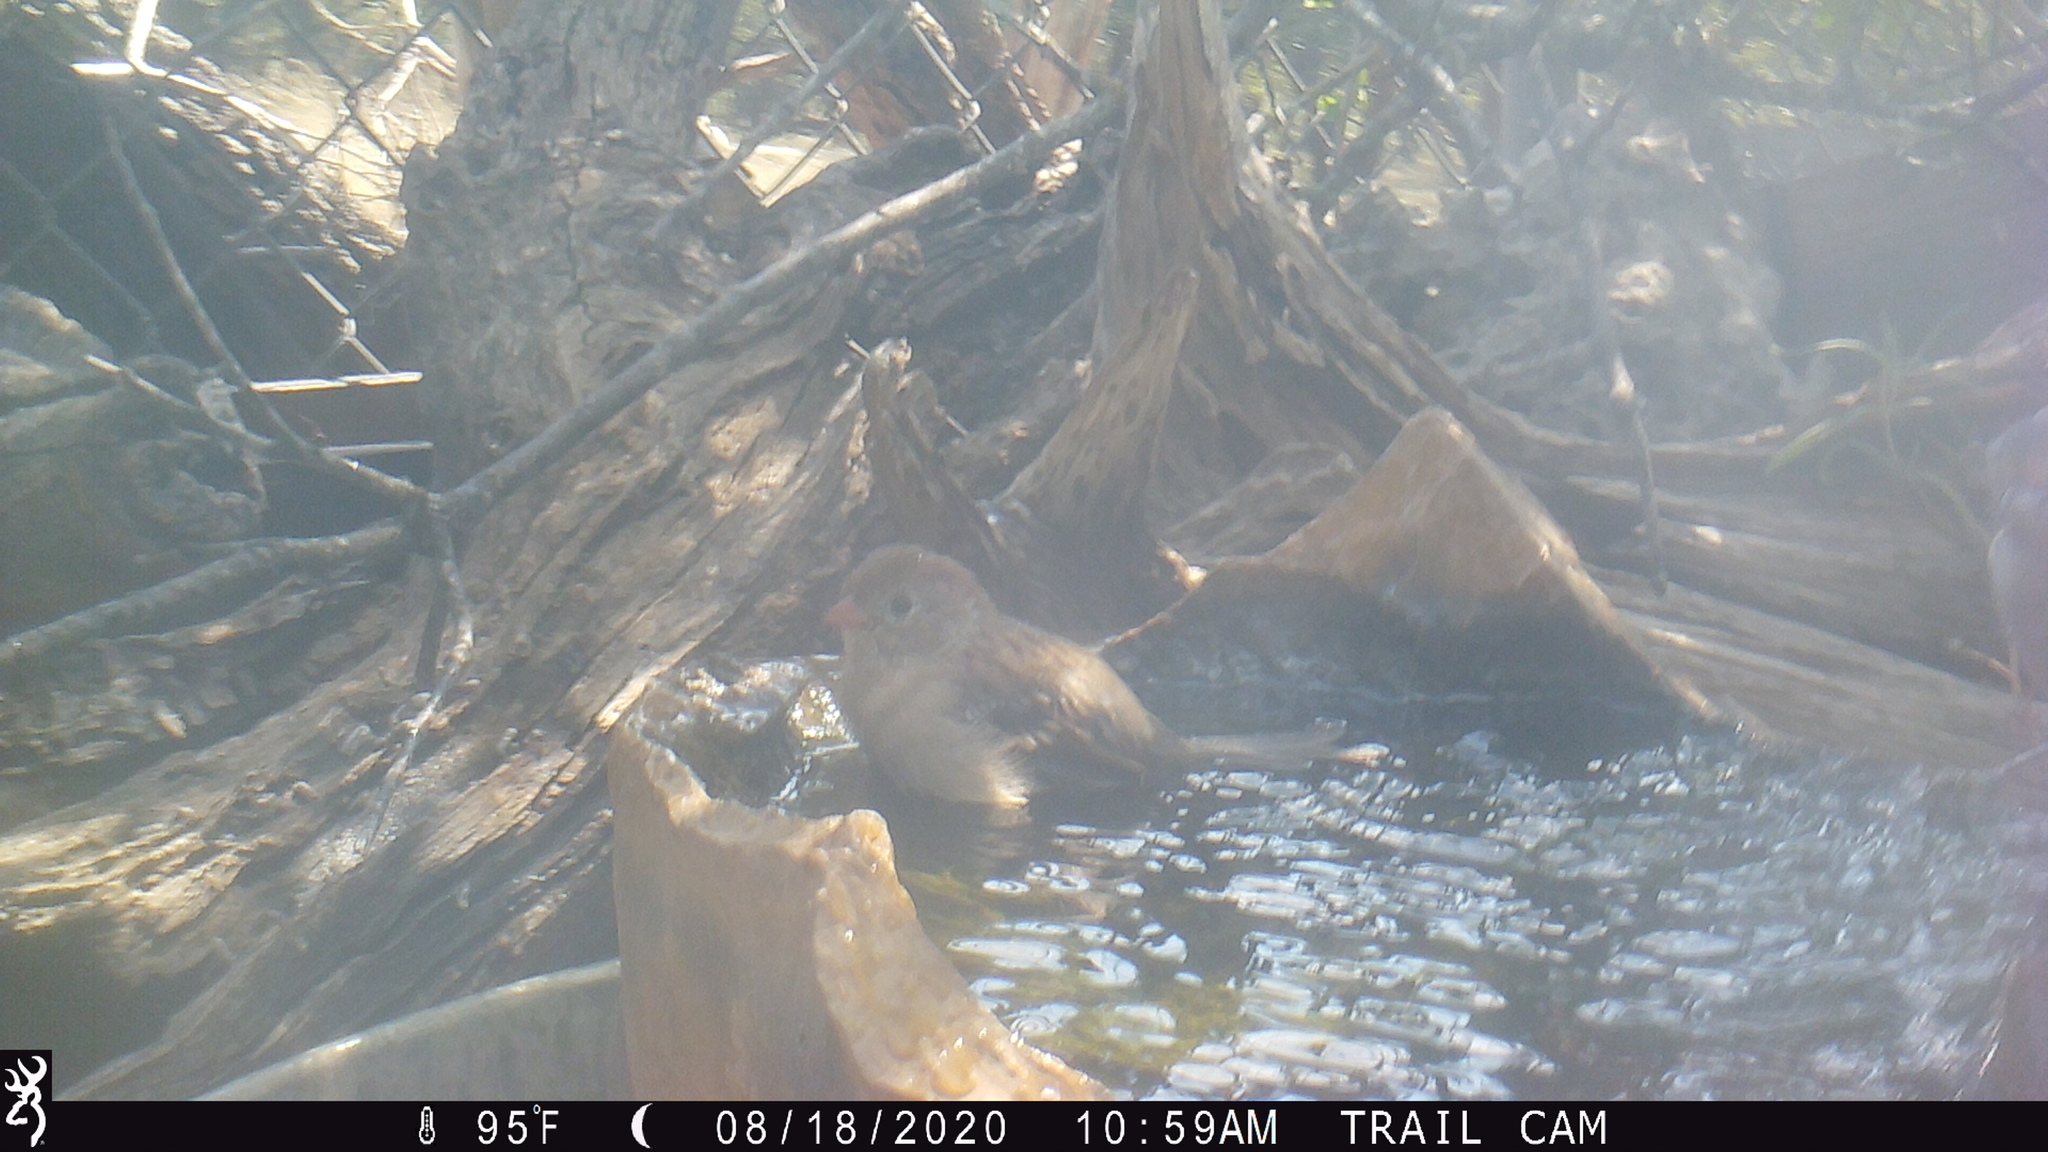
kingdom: Animalia
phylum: Chordata
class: Aves
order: Passeriformes
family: Passerellidae
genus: Spizella
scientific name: Spizella pusilla
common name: Field sparrow
